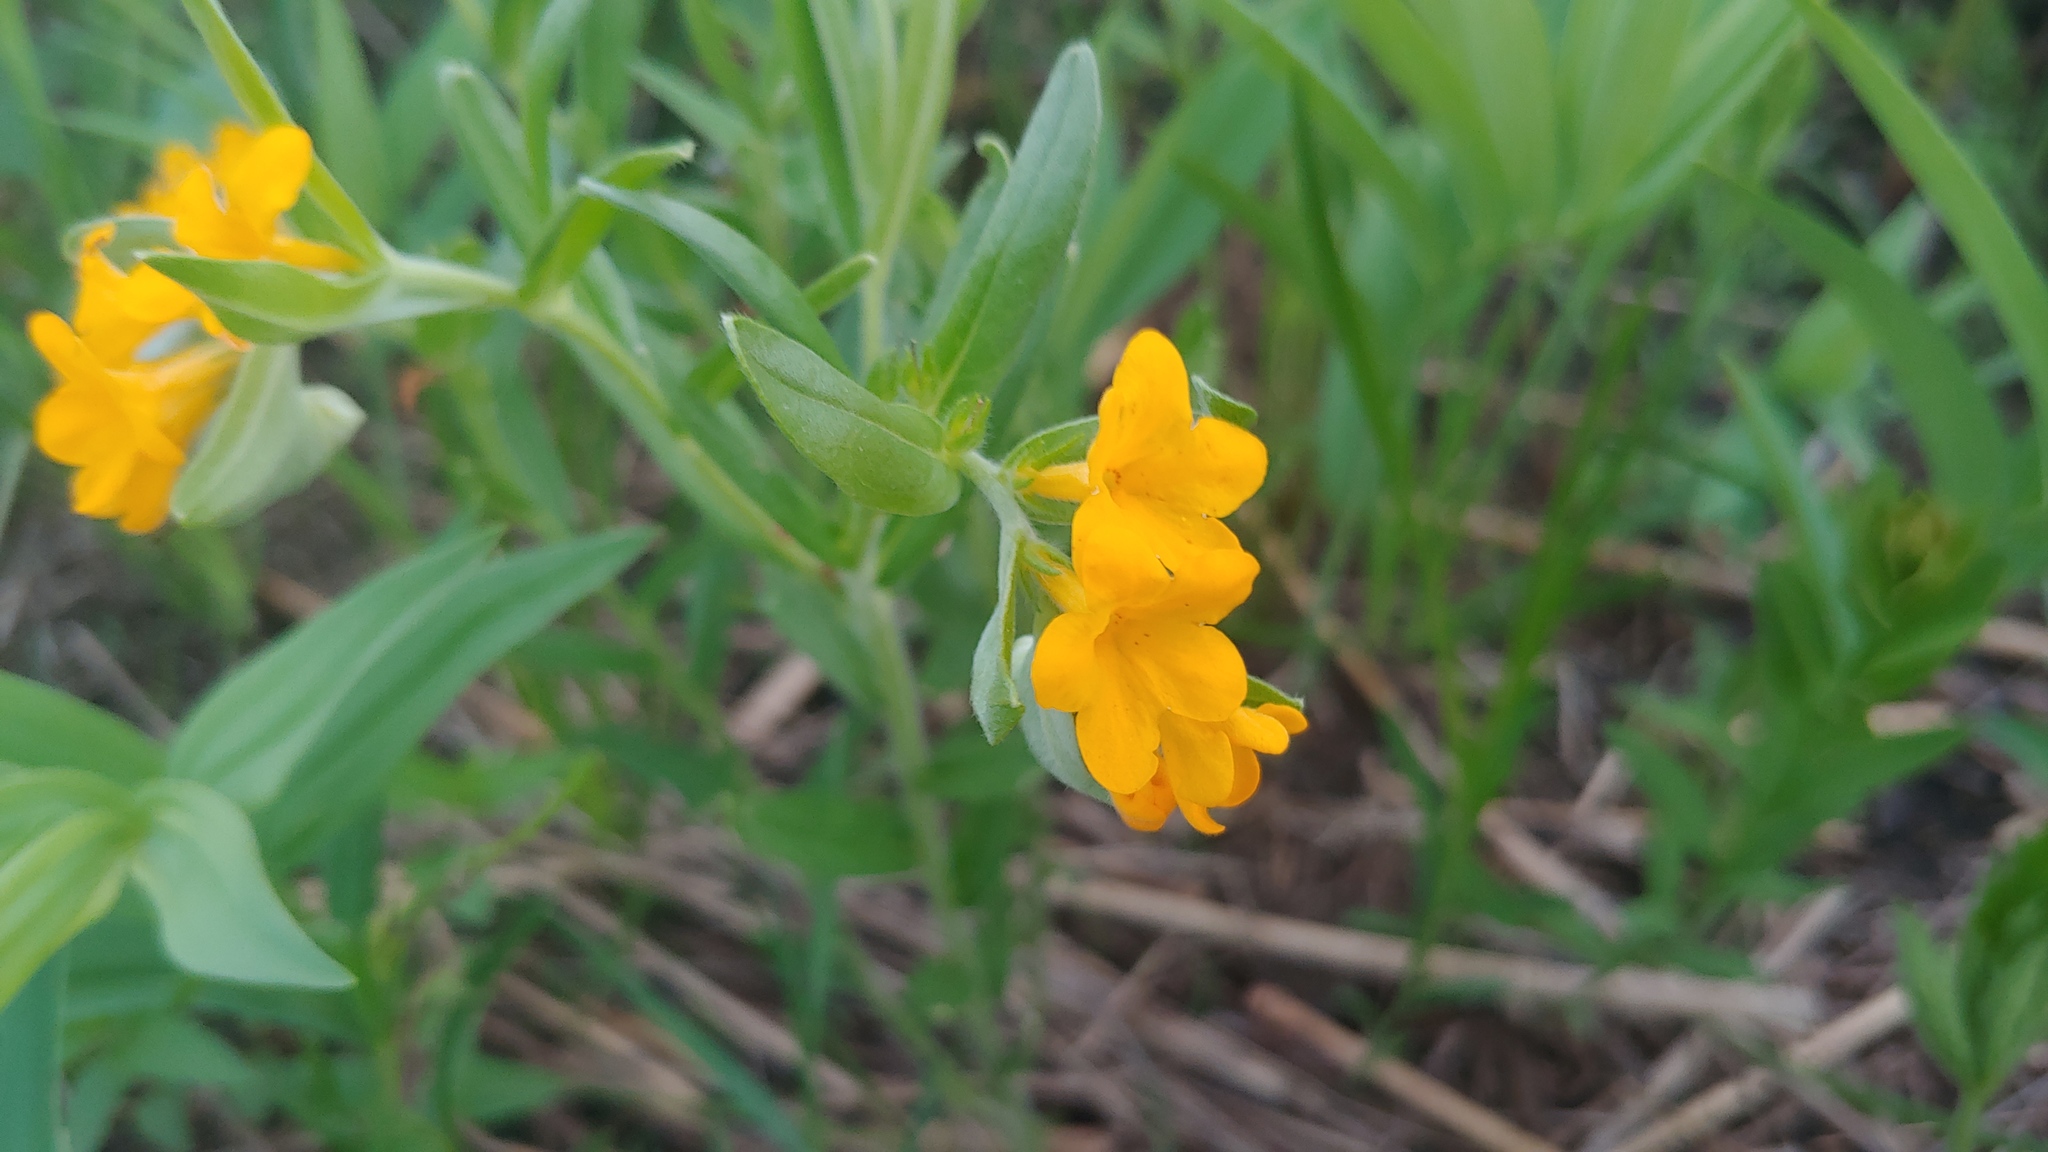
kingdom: Plantae
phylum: Tracheophyta
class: Magnoliopsida
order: Boraginales
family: Boraginaceae
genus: Lithospermum
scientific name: Lithospermum canescens
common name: Hoary puccoon
